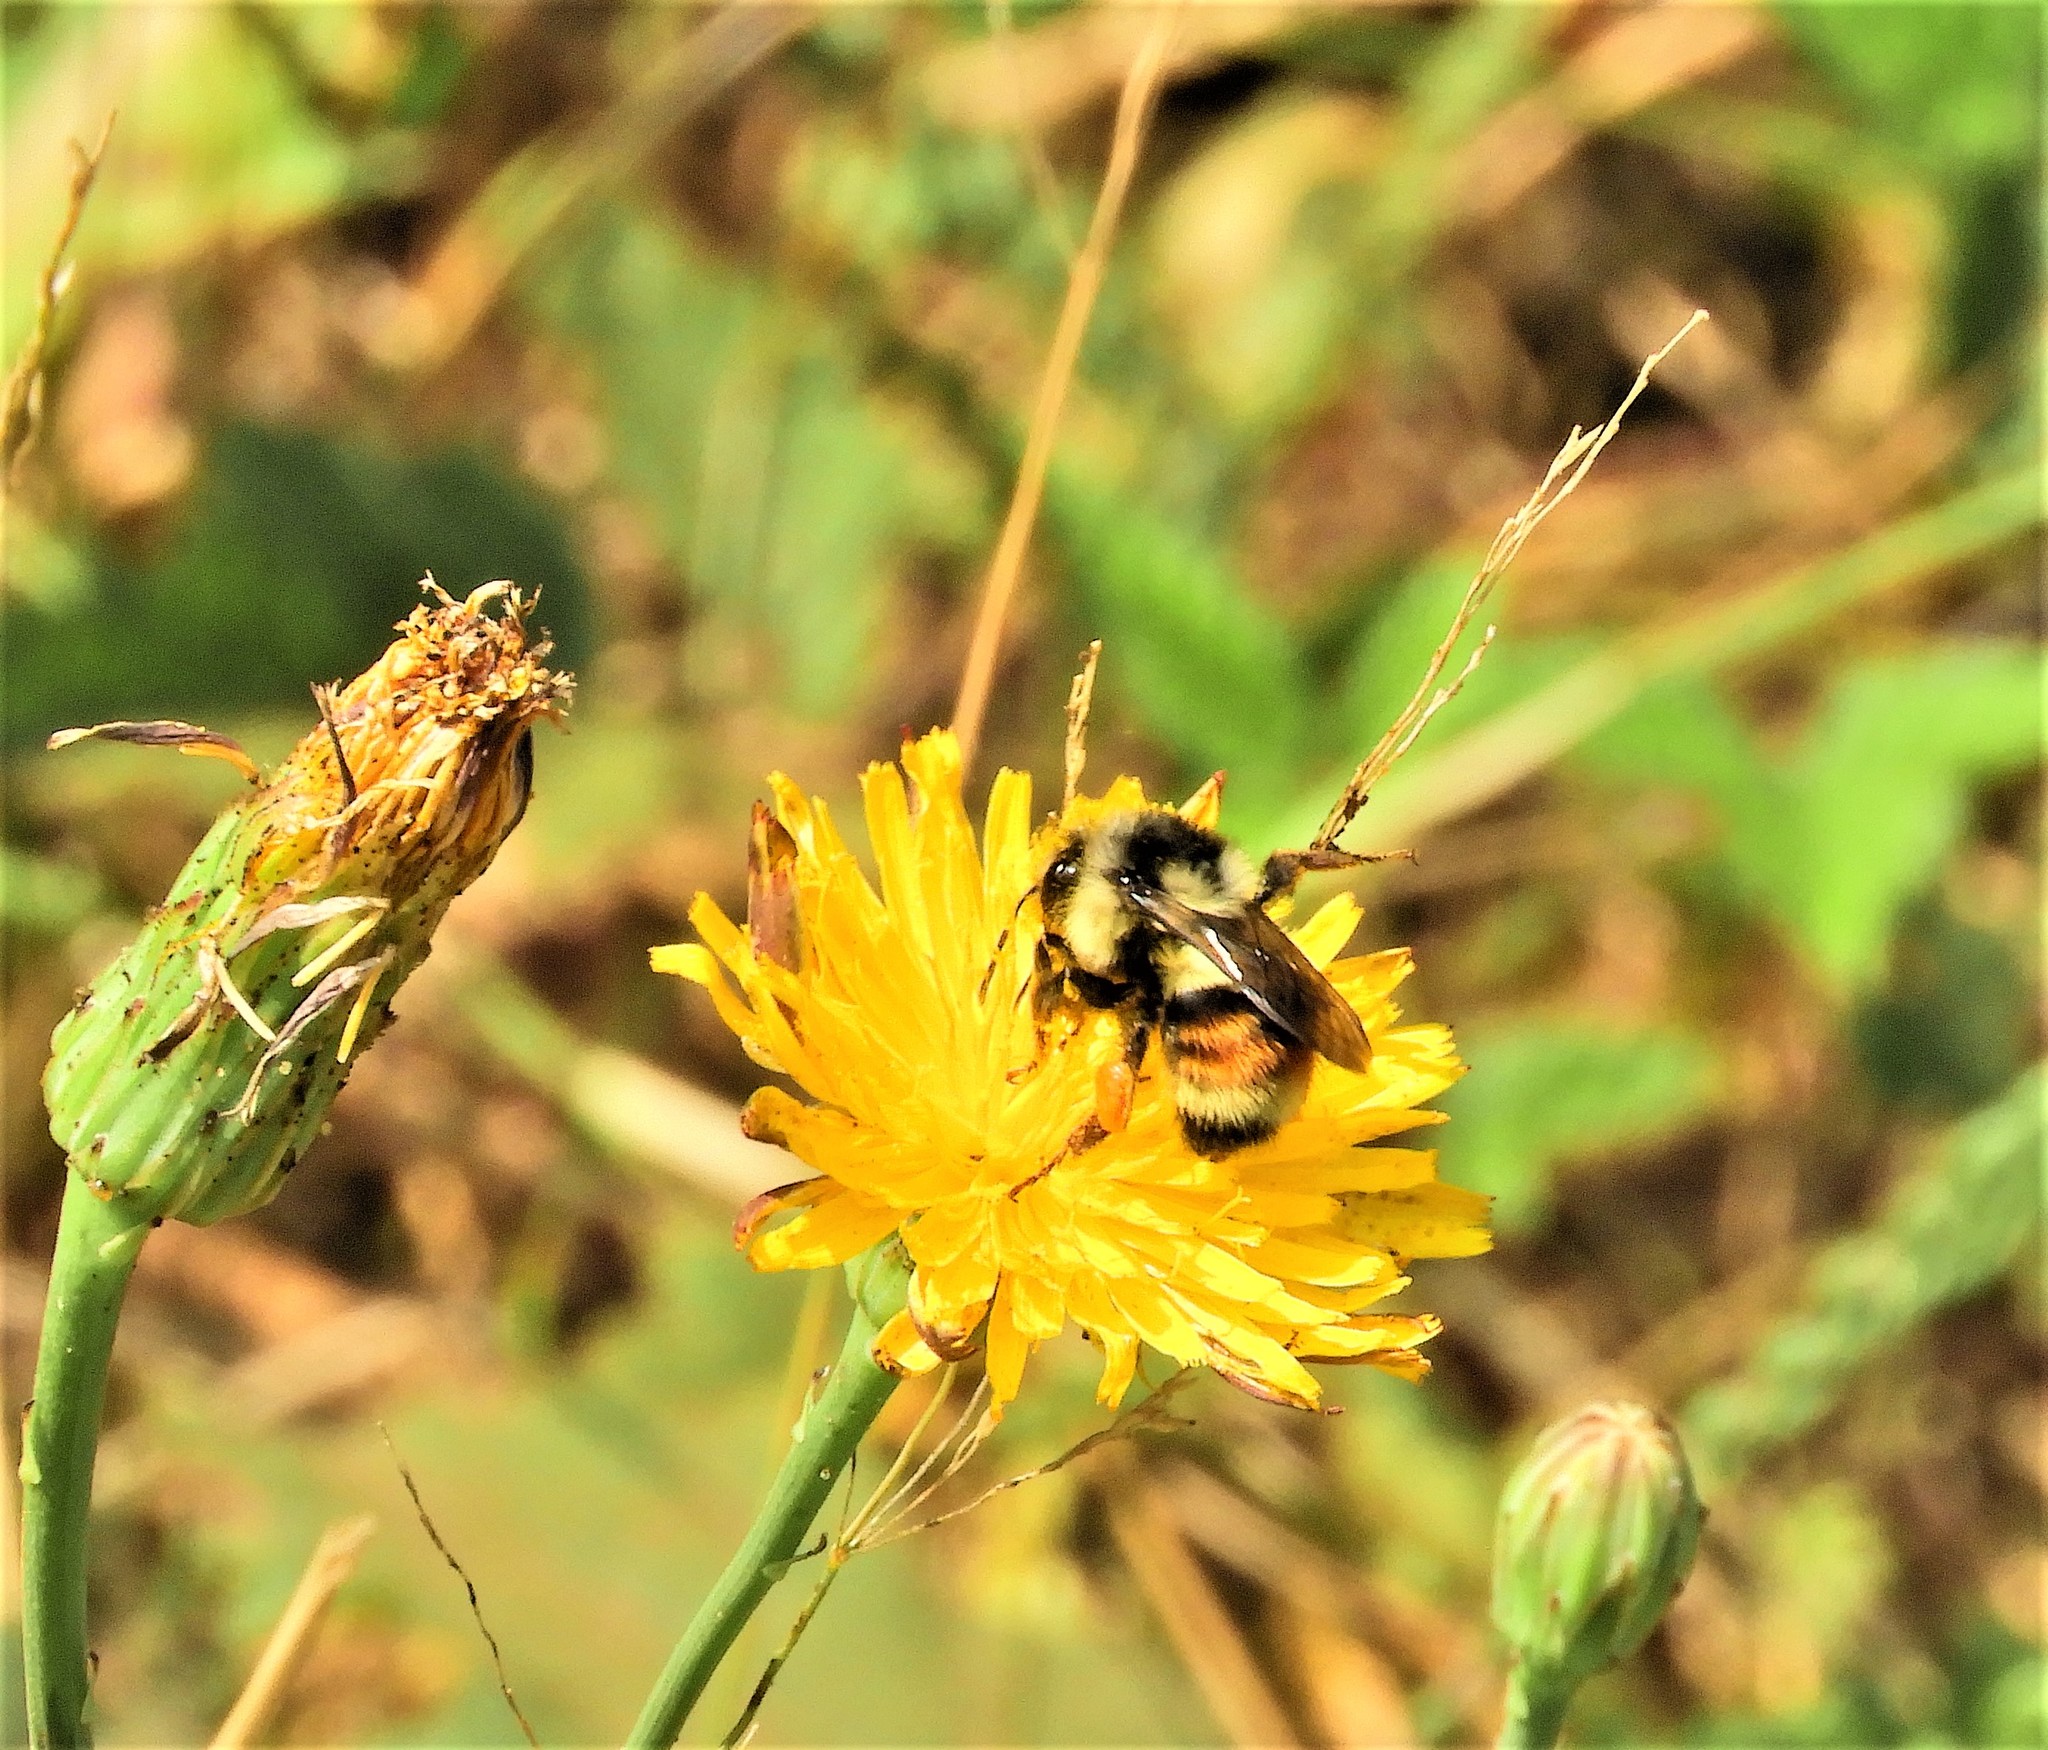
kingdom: Animalia
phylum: Arthropoda
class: Insecta
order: Hymenoptera
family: Apidae
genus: Bombus
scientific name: Bombus vancouverensis
